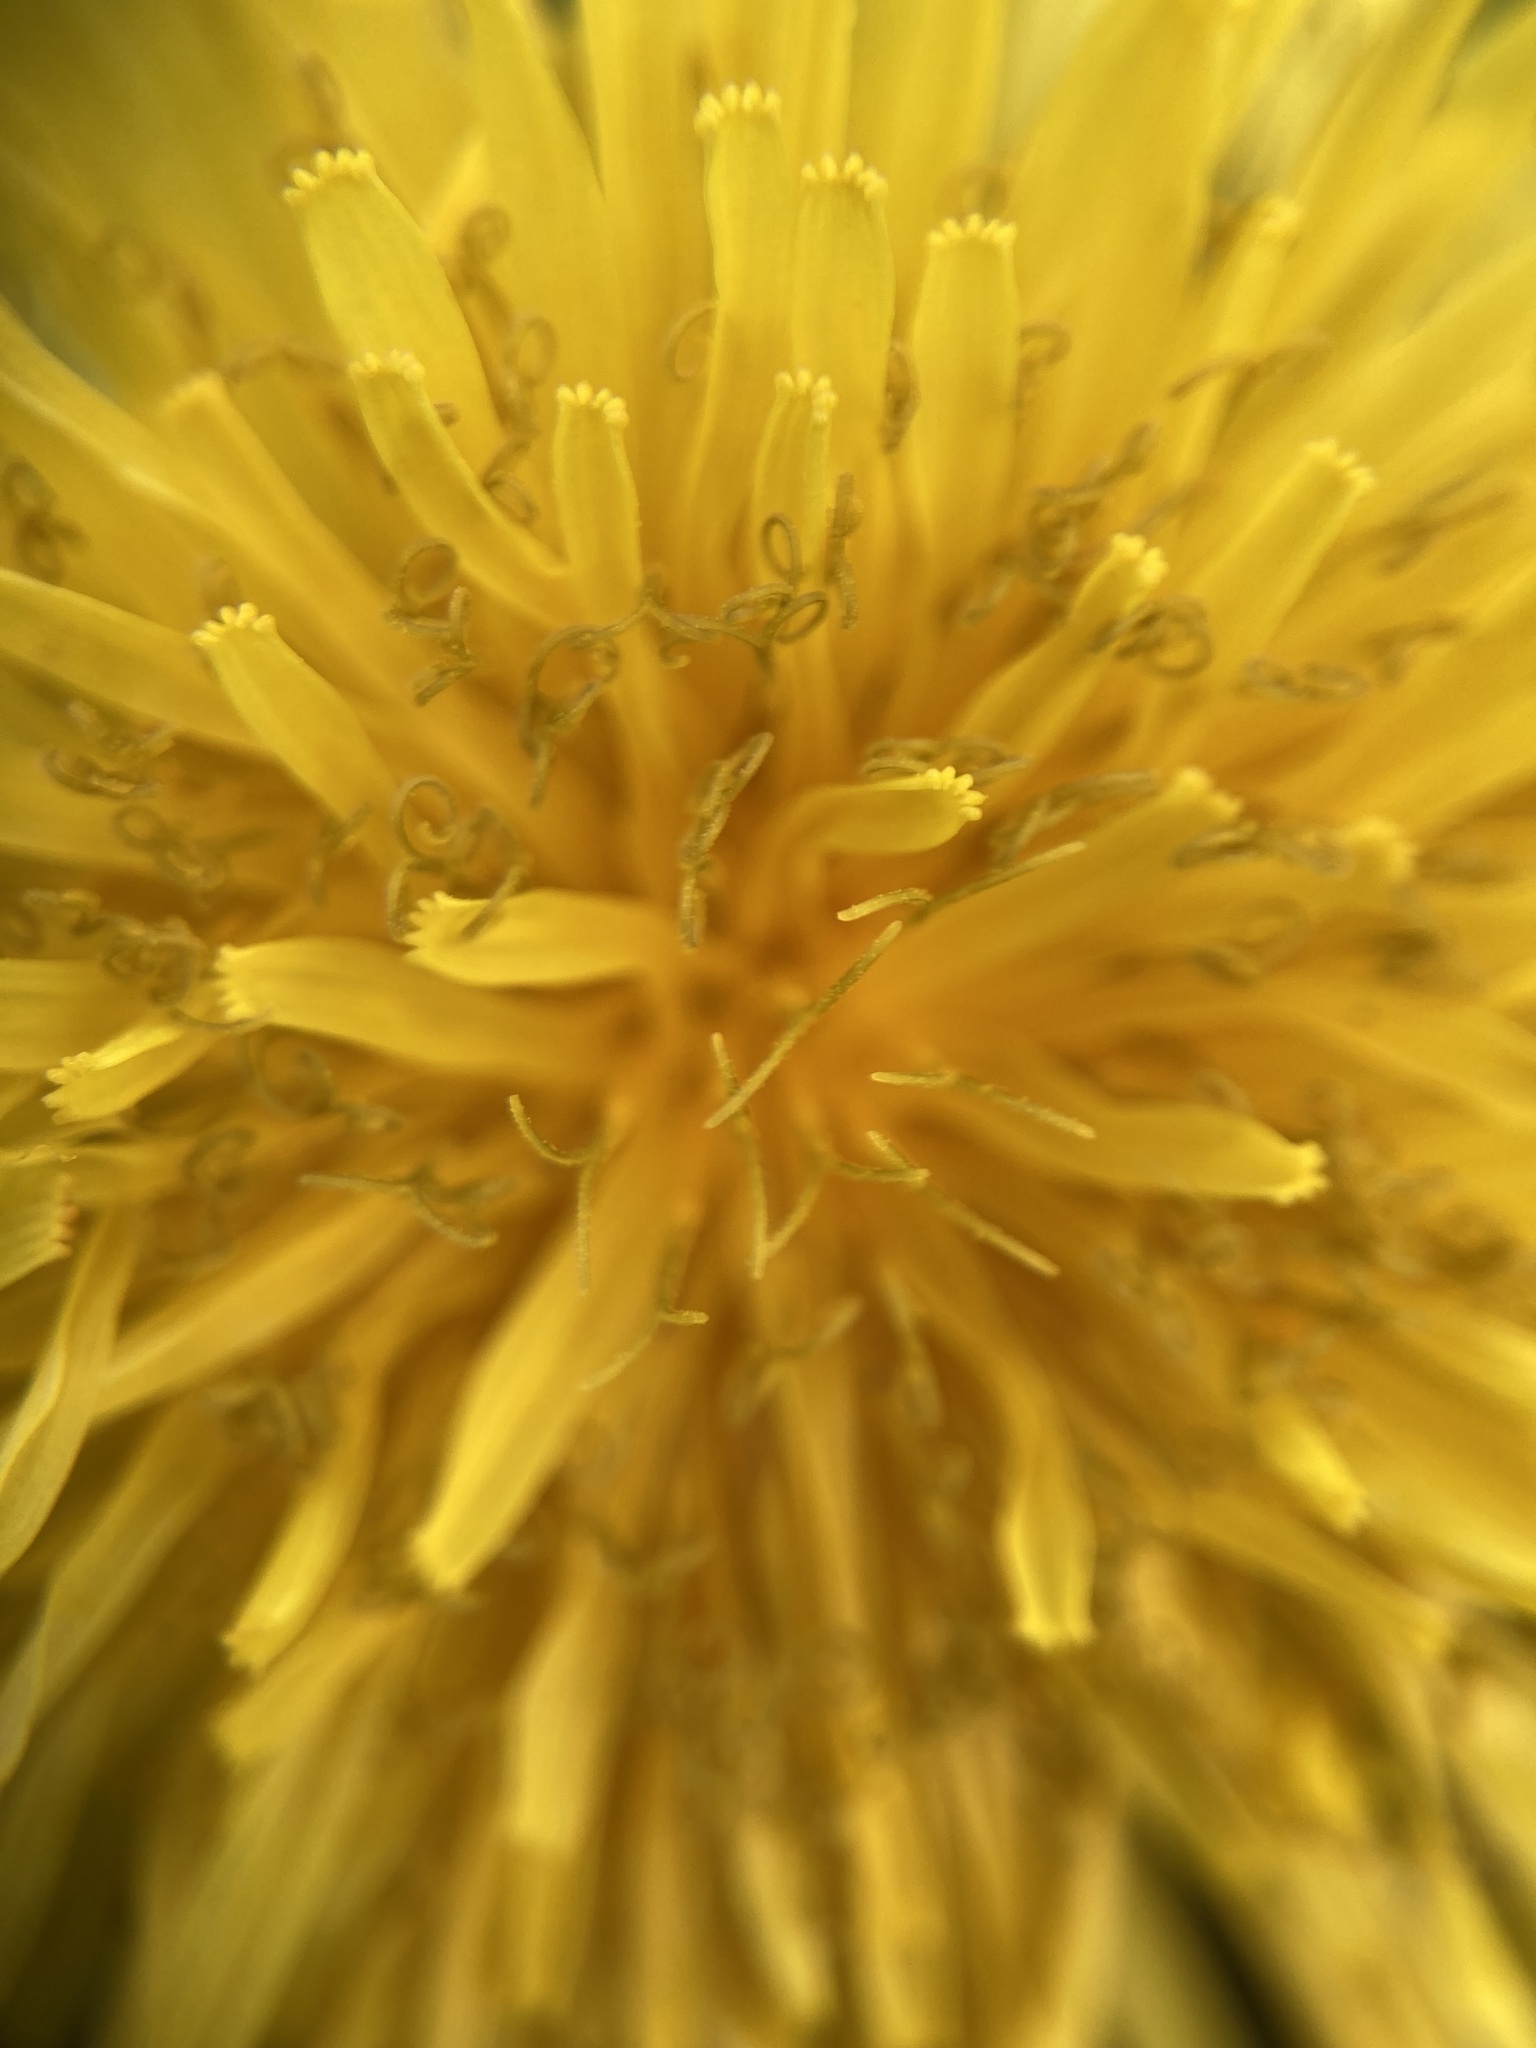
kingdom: Plantae
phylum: Tracheophyta
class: Magnoliopsida
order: Asterales
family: Asteraceae
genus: Taraxacum
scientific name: Taraxacum officinale
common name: Common dandelion
